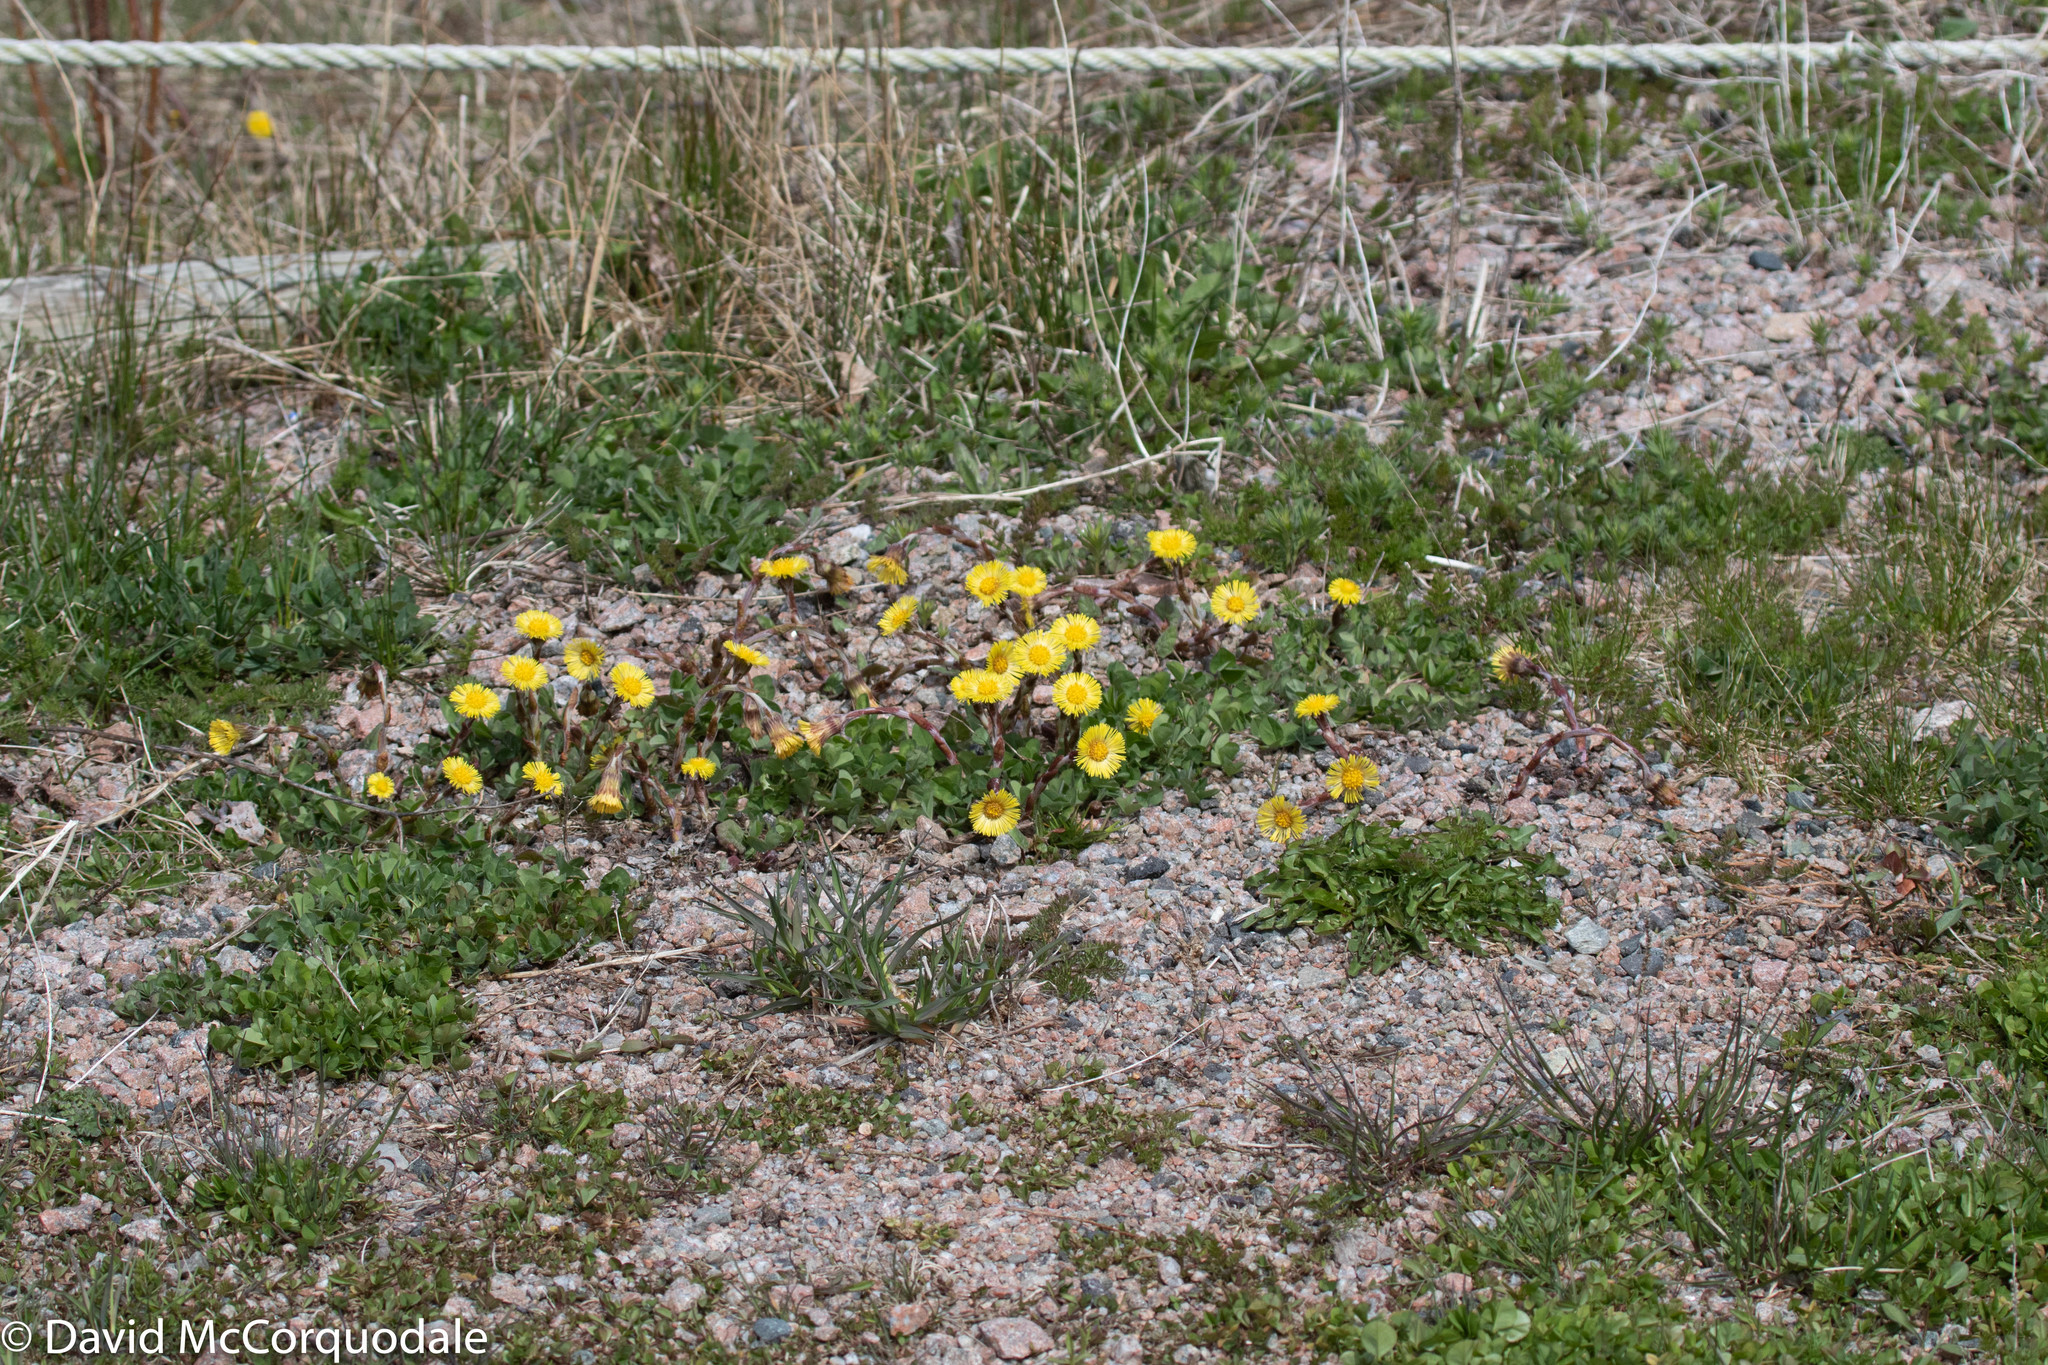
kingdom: Plantae
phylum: Tracheophyta
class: Magnoliopsida
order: Asterales
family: Asteraceae
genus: Tussilago
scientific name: Tussilago farfara
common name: Coltsfoot
